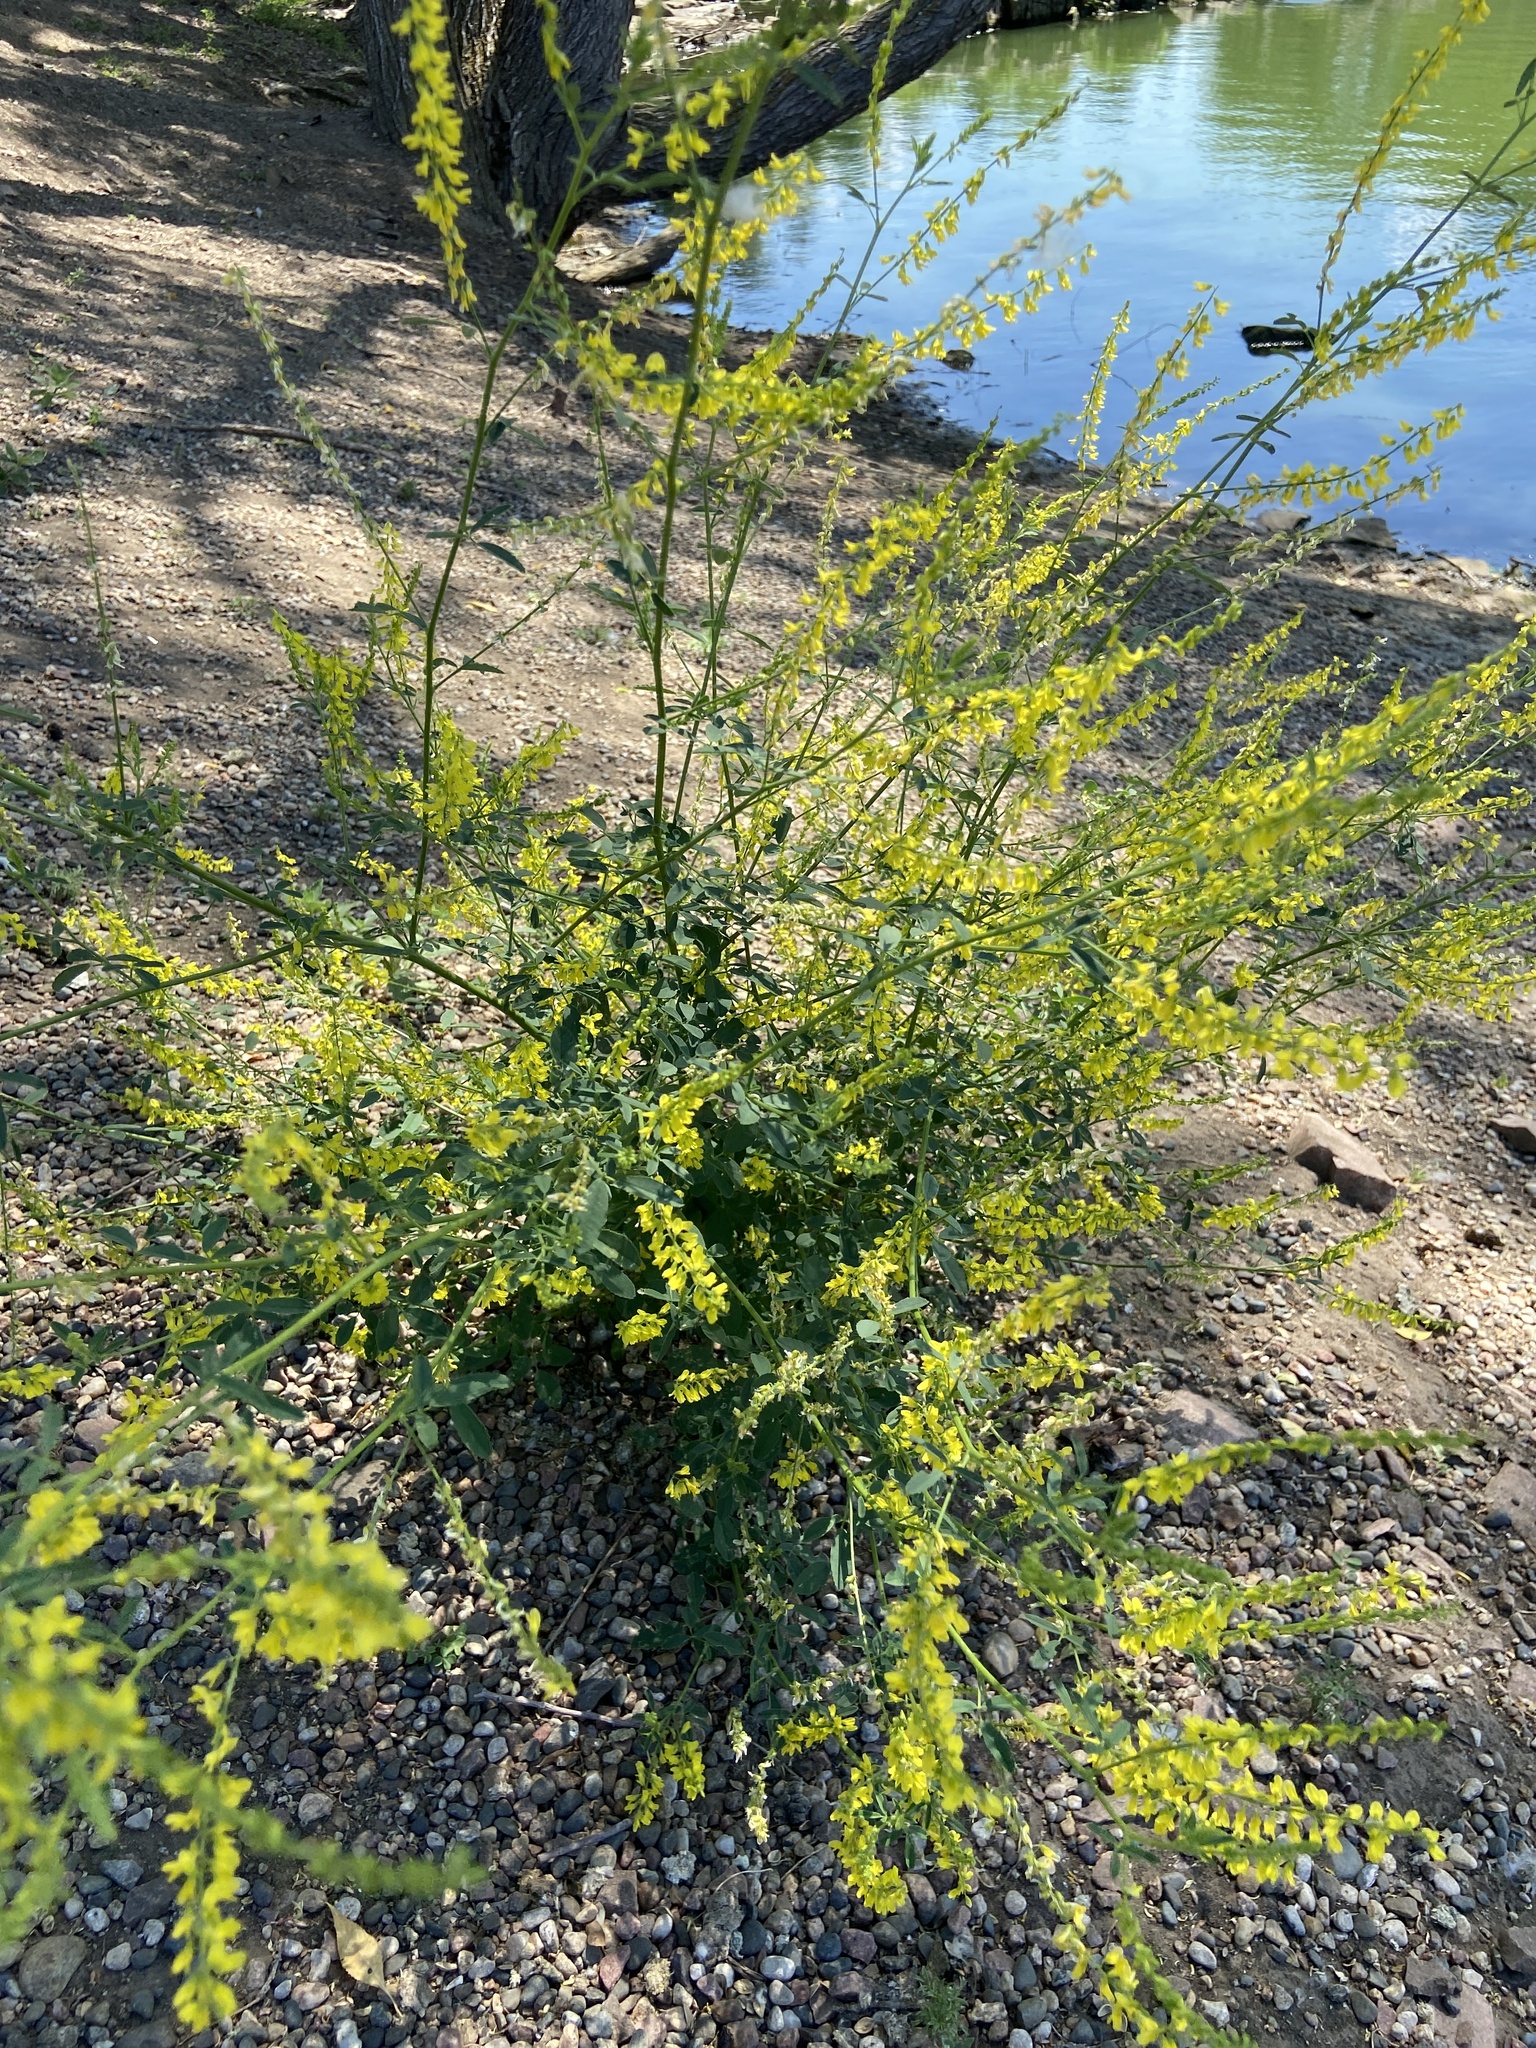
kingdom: Plantae
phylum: Tracheophyta
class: Magnoliopsida
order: Fabales
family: Fabaceae
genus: Melilotus
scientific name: Melilotus officinalis
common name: Sweetclover
